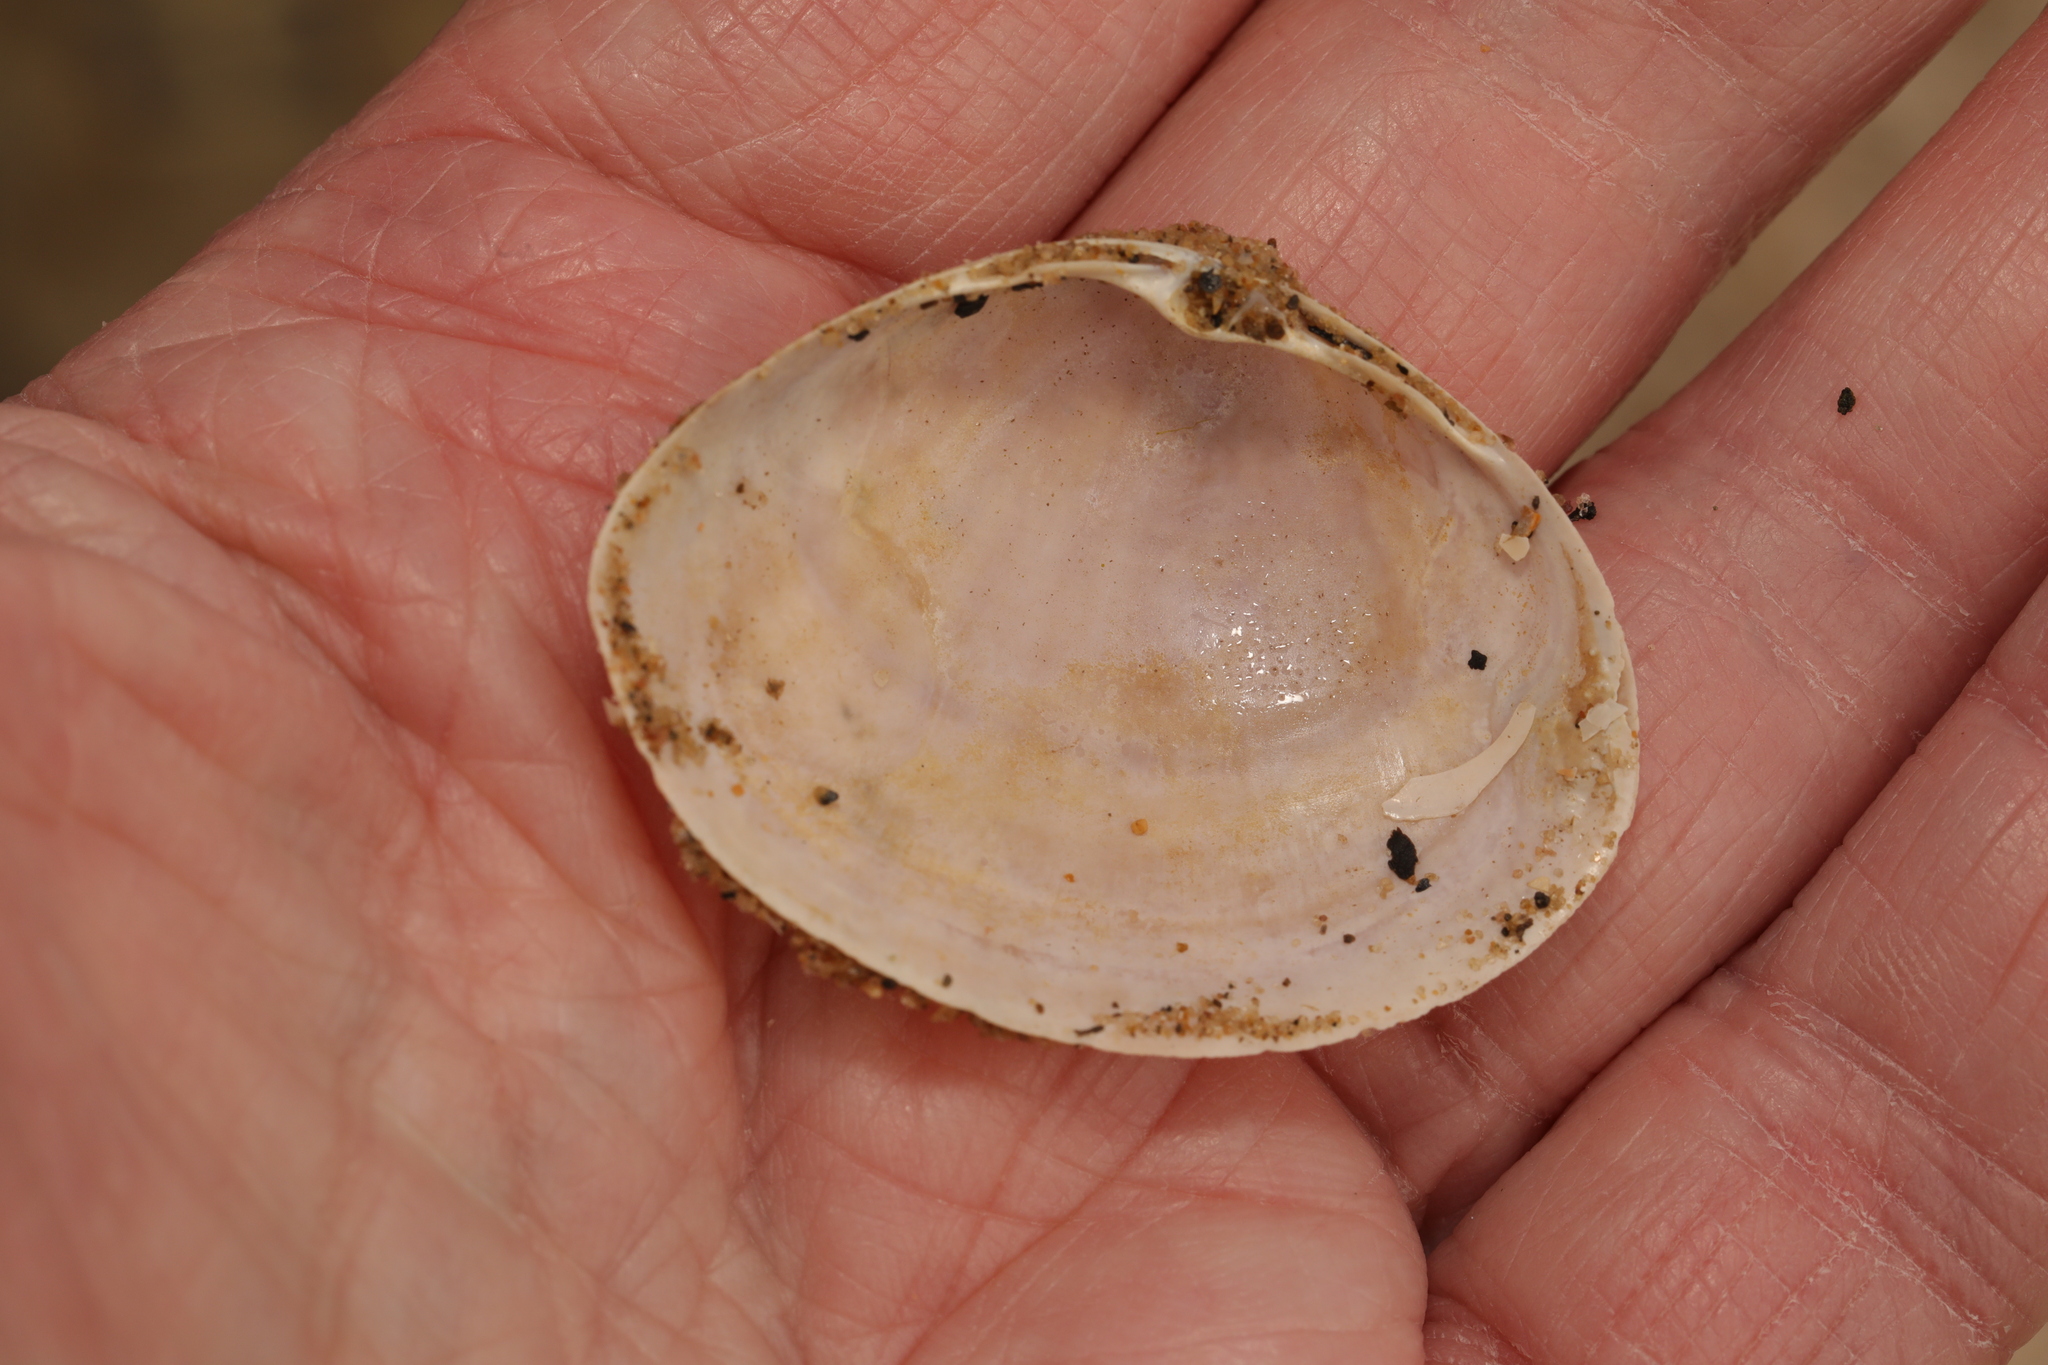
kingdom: Animalia
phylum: Mollusca
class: Bivalvia
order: Venerida
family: Mactridae
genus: Mactra
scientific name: Mactra stultorum
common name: Rayed trough shell
